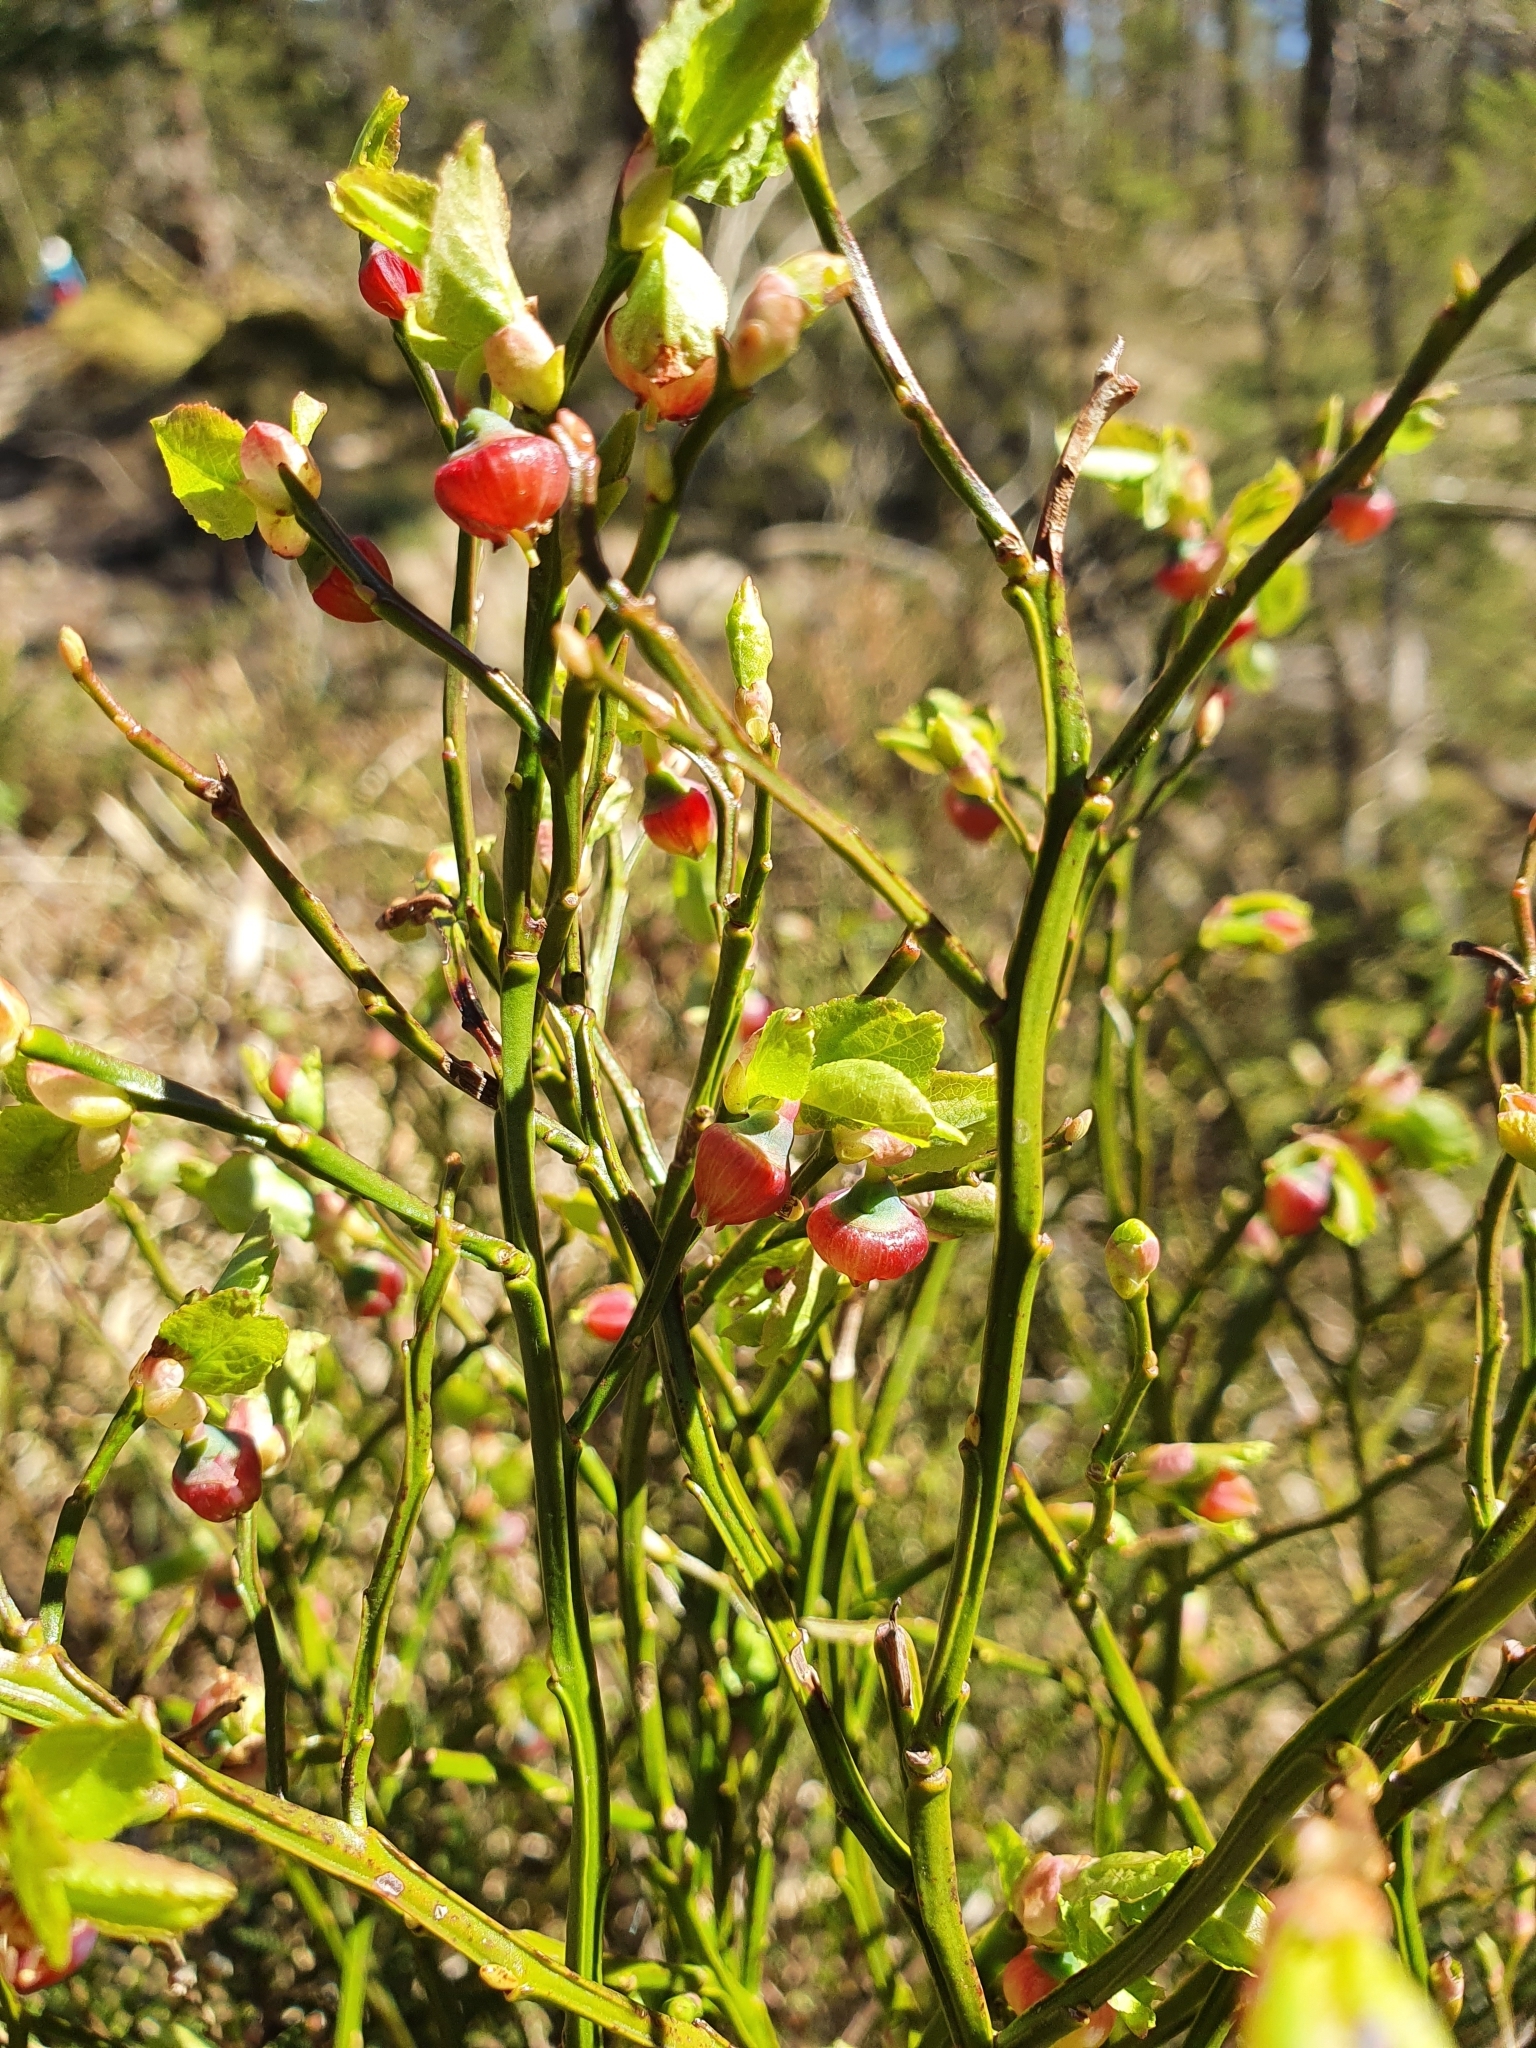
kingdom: Plantae
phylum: Tracheophyta
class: Magnoliopsida
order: Ericales
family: Ericaceae
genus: Vaccinium
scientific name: Vaccinium myrtillus
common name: Bilberry
